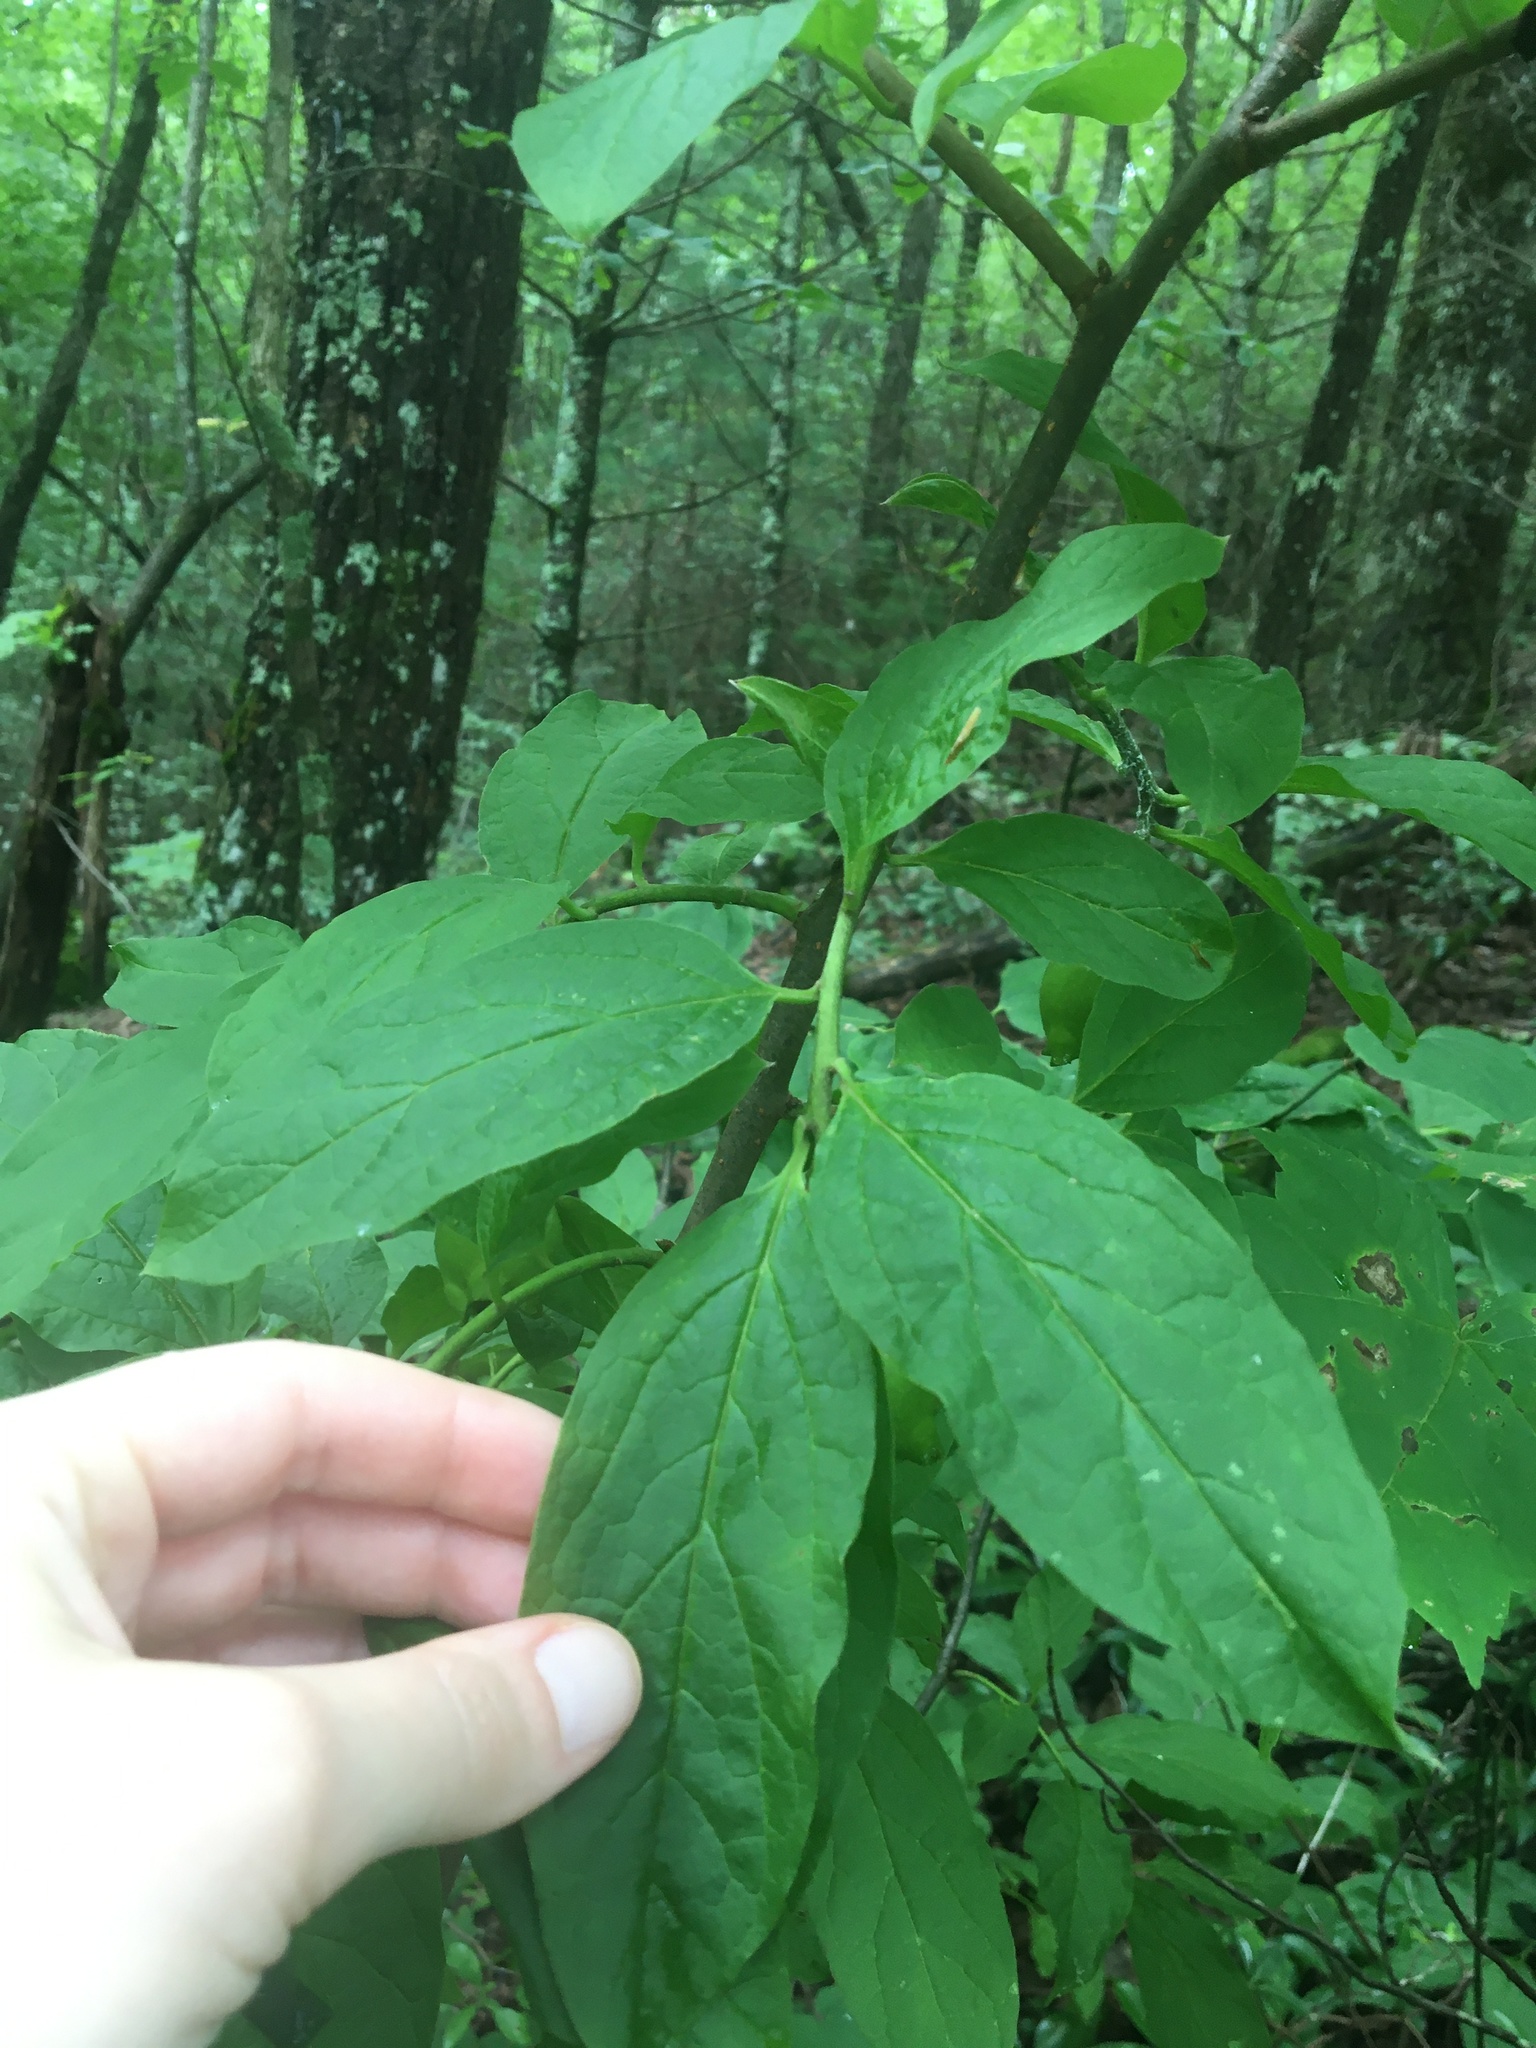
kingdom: Plantae
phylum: Tracheophyta
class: Magnoliopsida
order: Santalales
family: Cervantesiaceae
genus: Pyrularia
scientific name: Pyrularia pubera
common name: Oilnut
